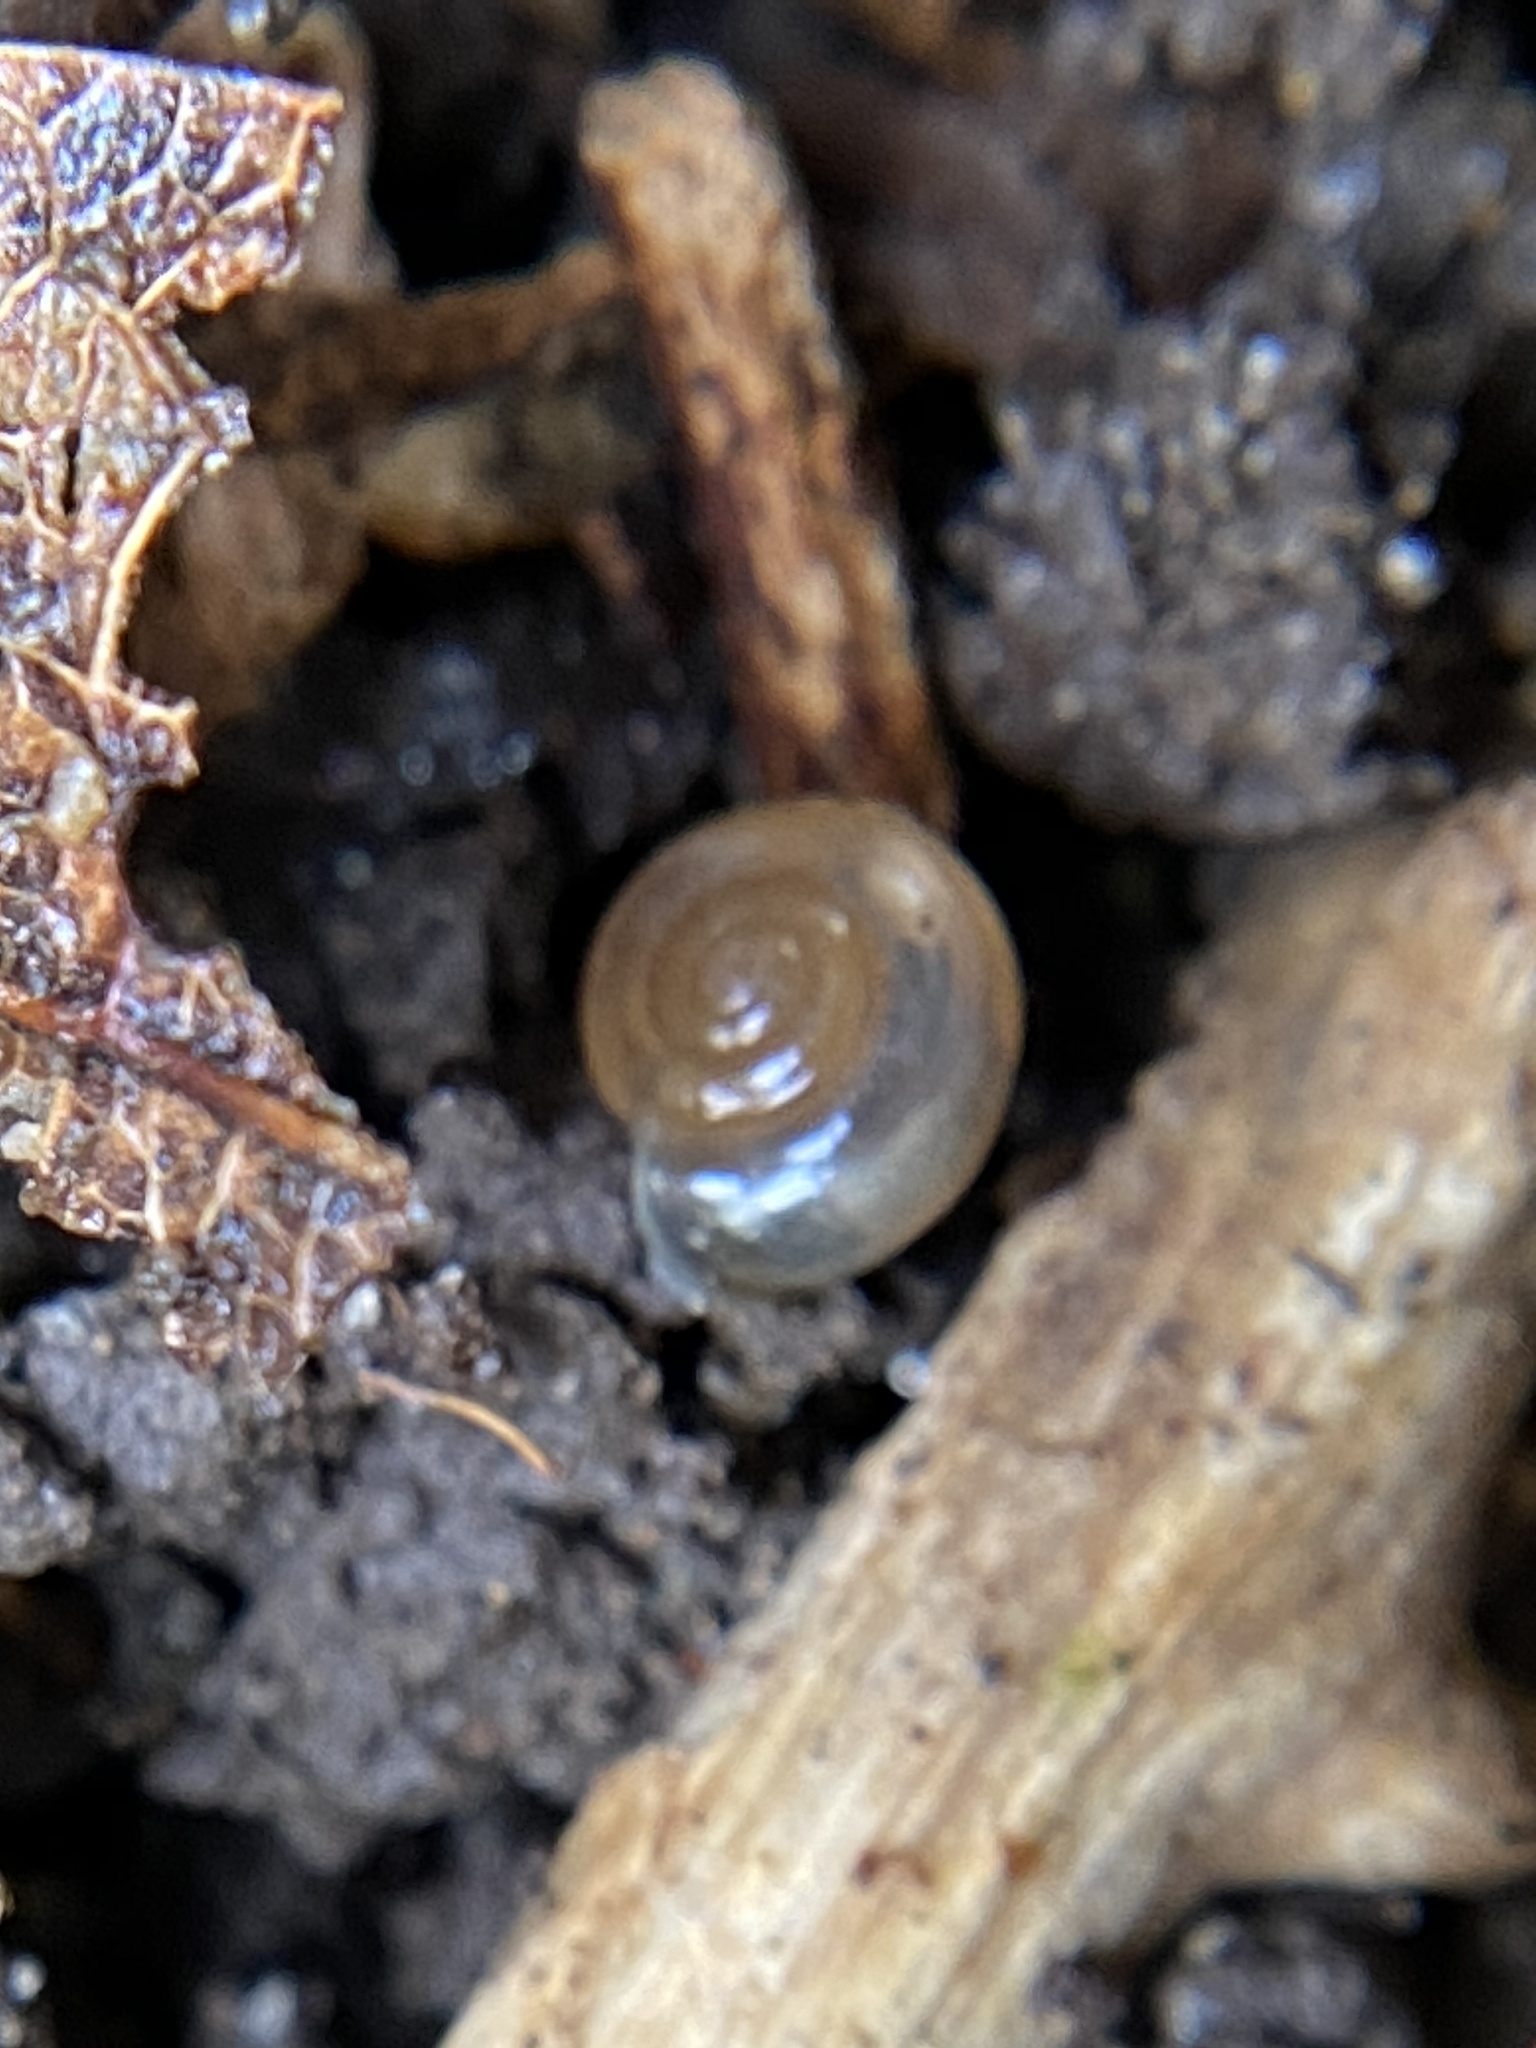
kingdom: Animalia
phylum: Mollusca
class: Gastropoda
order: Stylommatophora
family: Oxychilidae
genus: Oxychilus
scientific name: Oxychilus draparnaudi
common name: Draparnaud's glass snail
